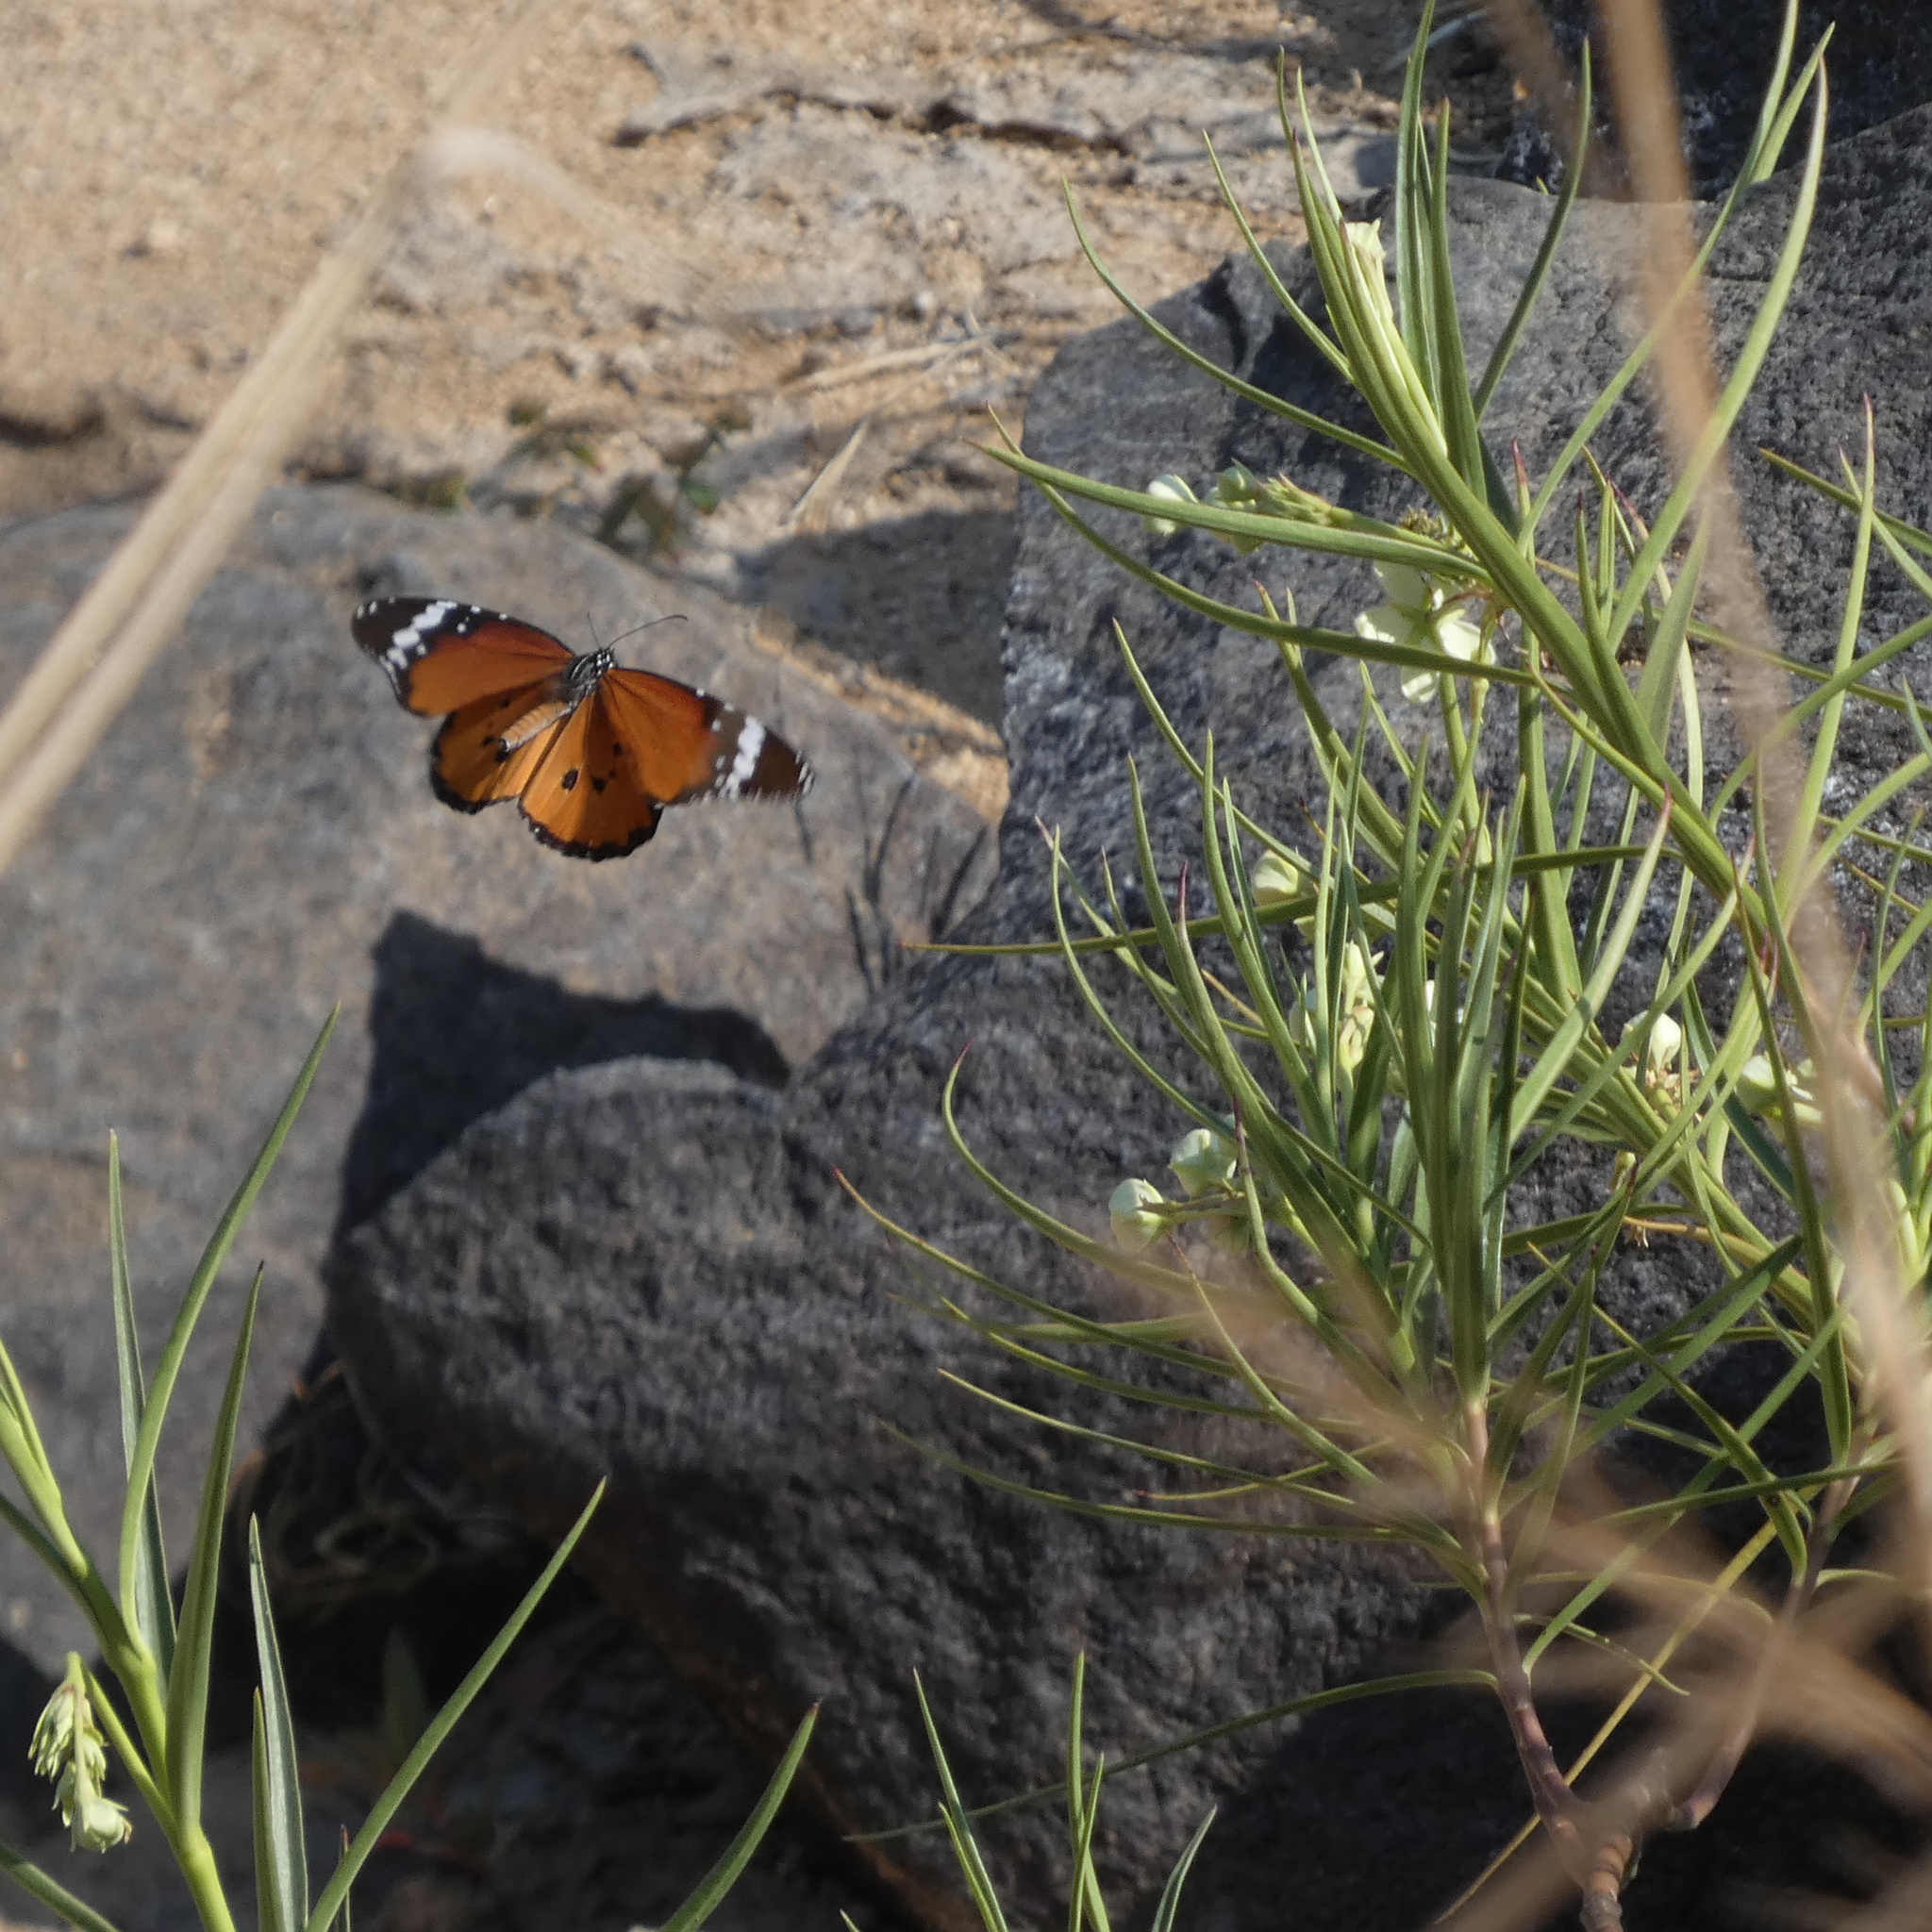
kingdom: Animalia
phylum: Arthropoda
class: Insecta
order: Lepidoptera
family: Nymphalidae
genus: Danaus
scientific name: Danaus chrysippus
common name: Plain tiger
